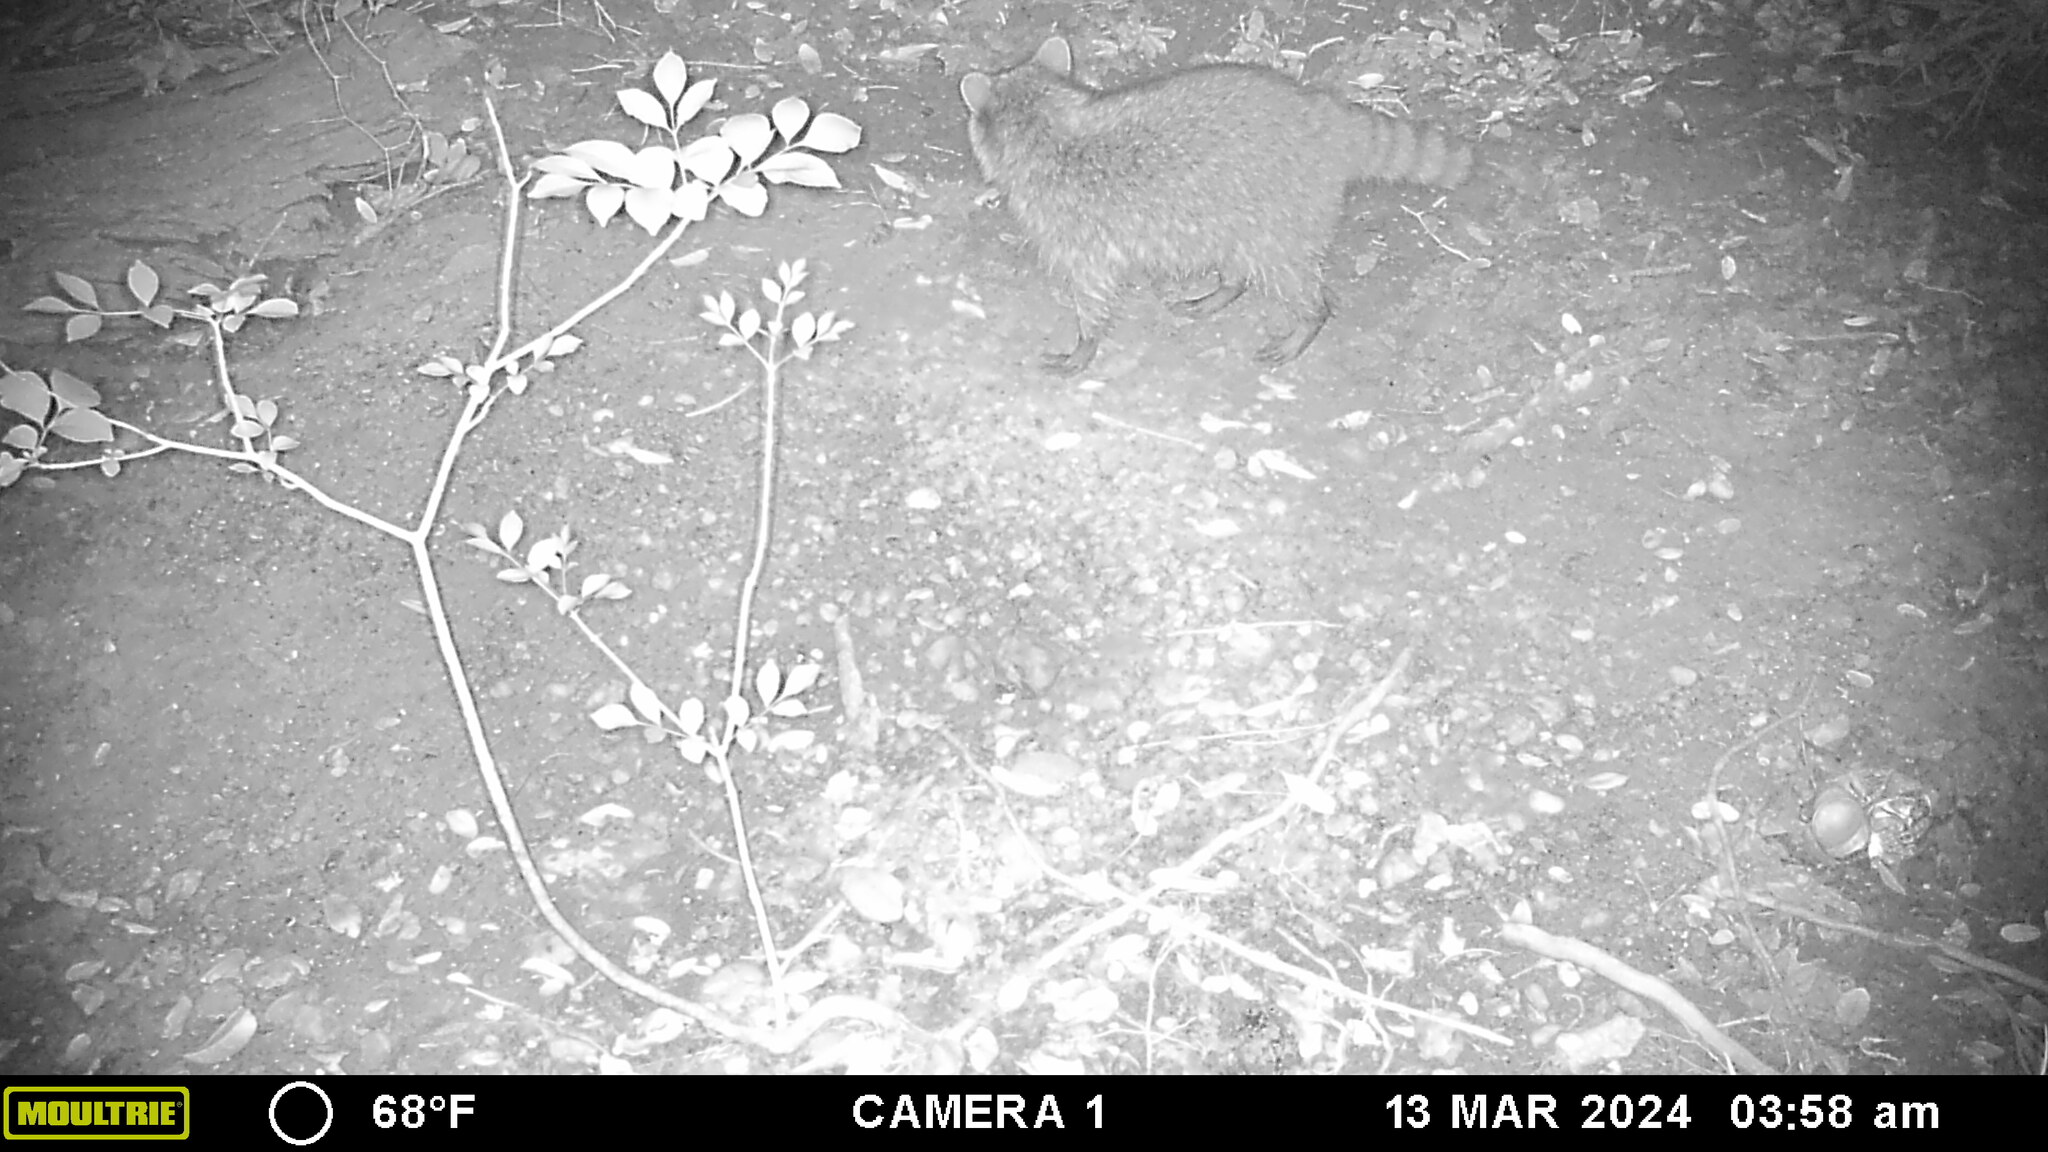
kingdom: Animalia
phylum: Chordata
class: Mammalia
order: Carnivora
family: Procyonidae
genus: Procyon
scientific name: Procyon lotor
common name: Raccoon
